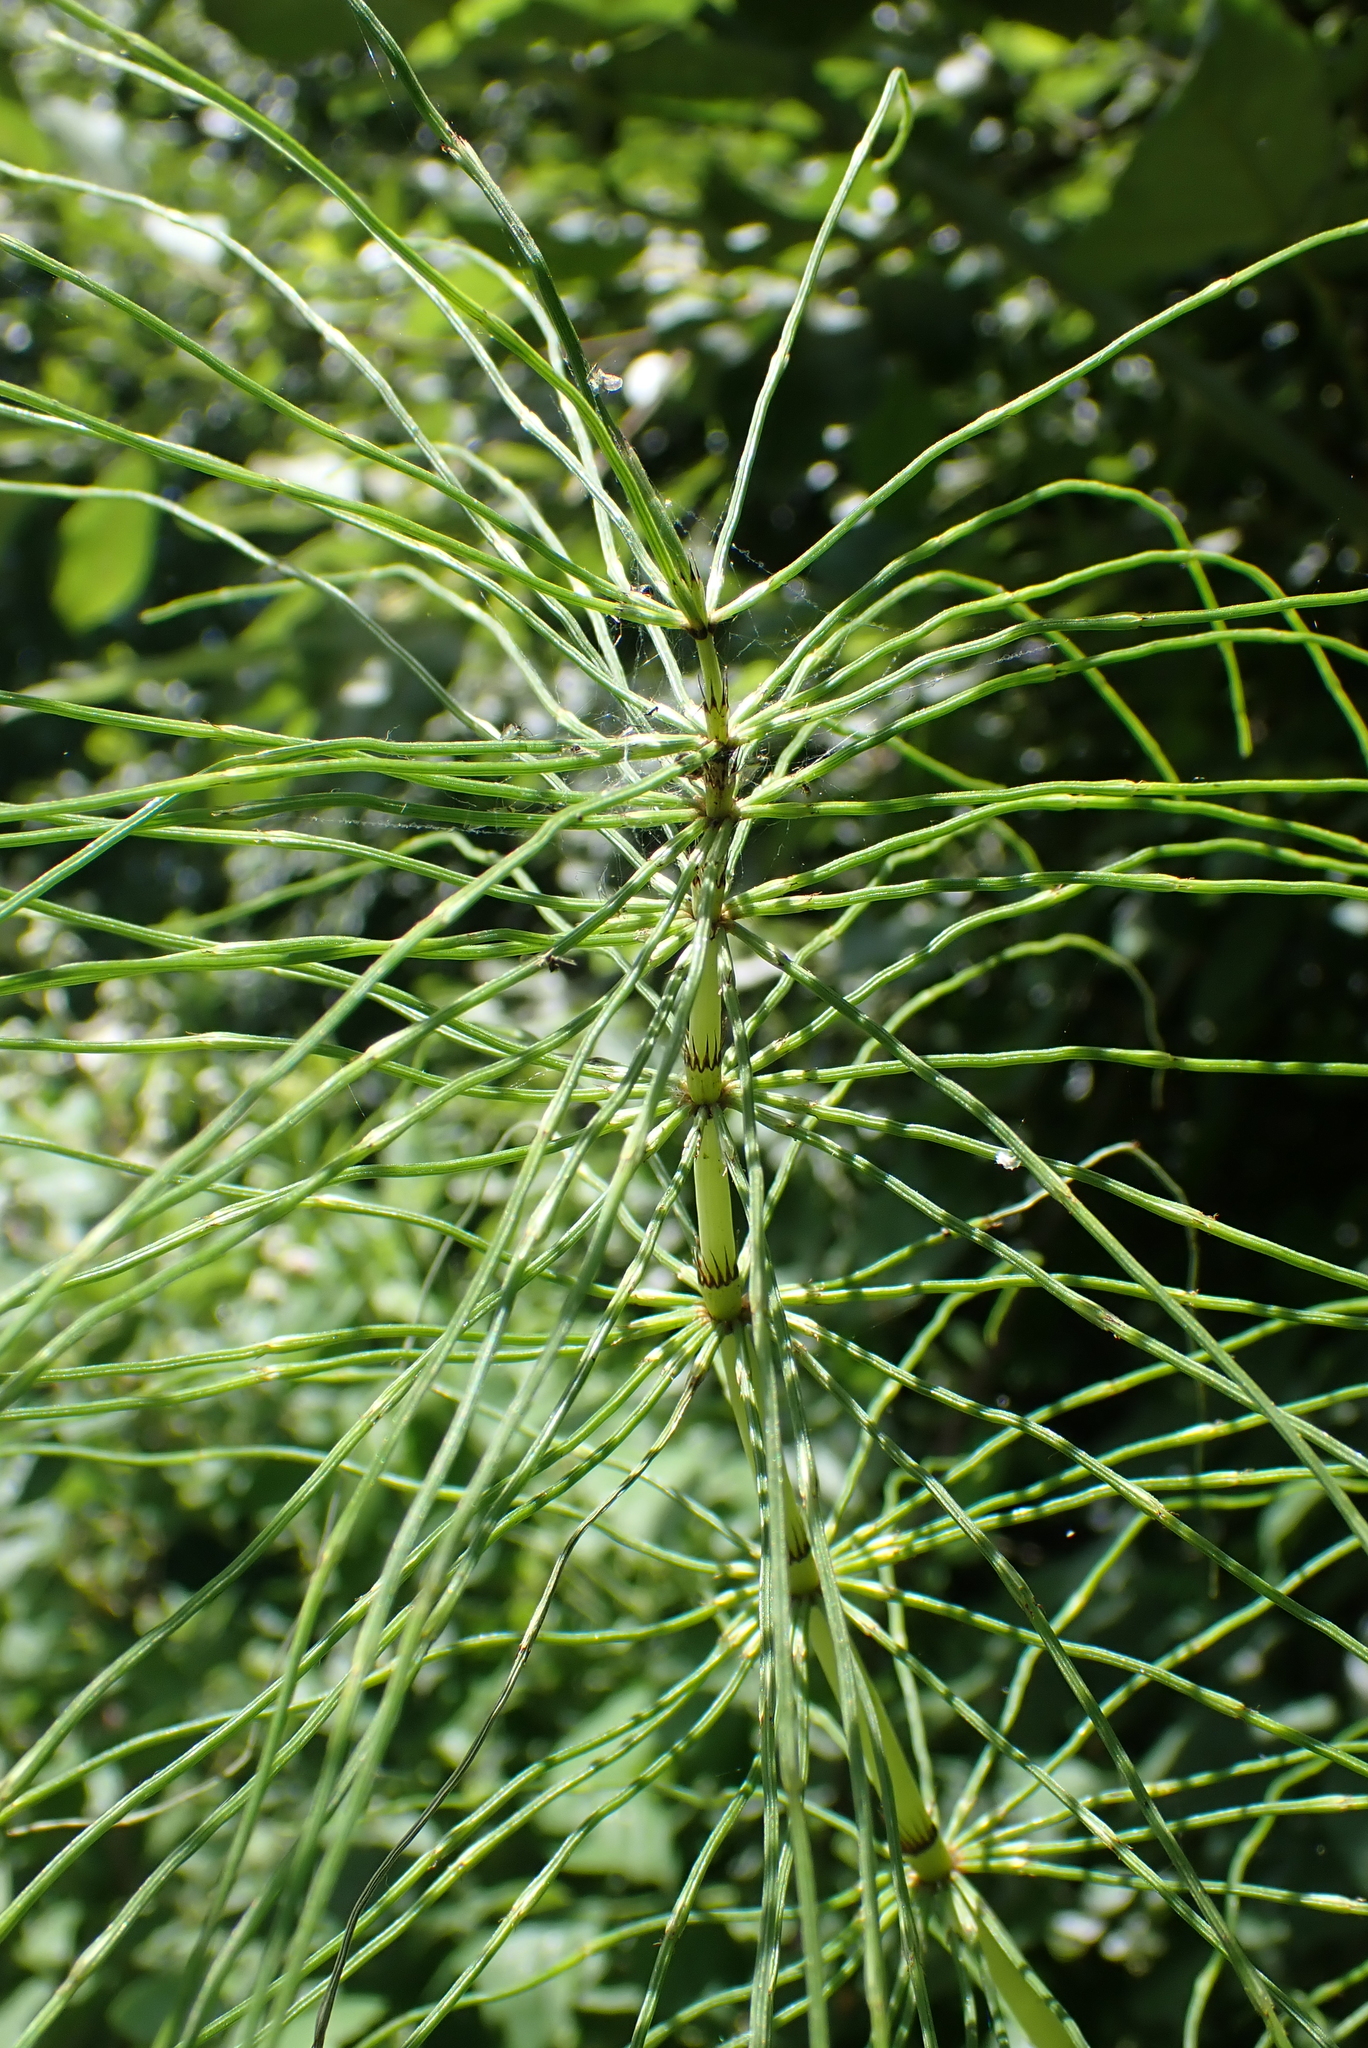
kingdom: Plantae
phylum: Tracheophyta
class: Polypodiopsida
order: Equisetales
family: Equisetaceae
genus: Equisetum
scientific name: Equisetum telmateia
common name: Great horsetail
